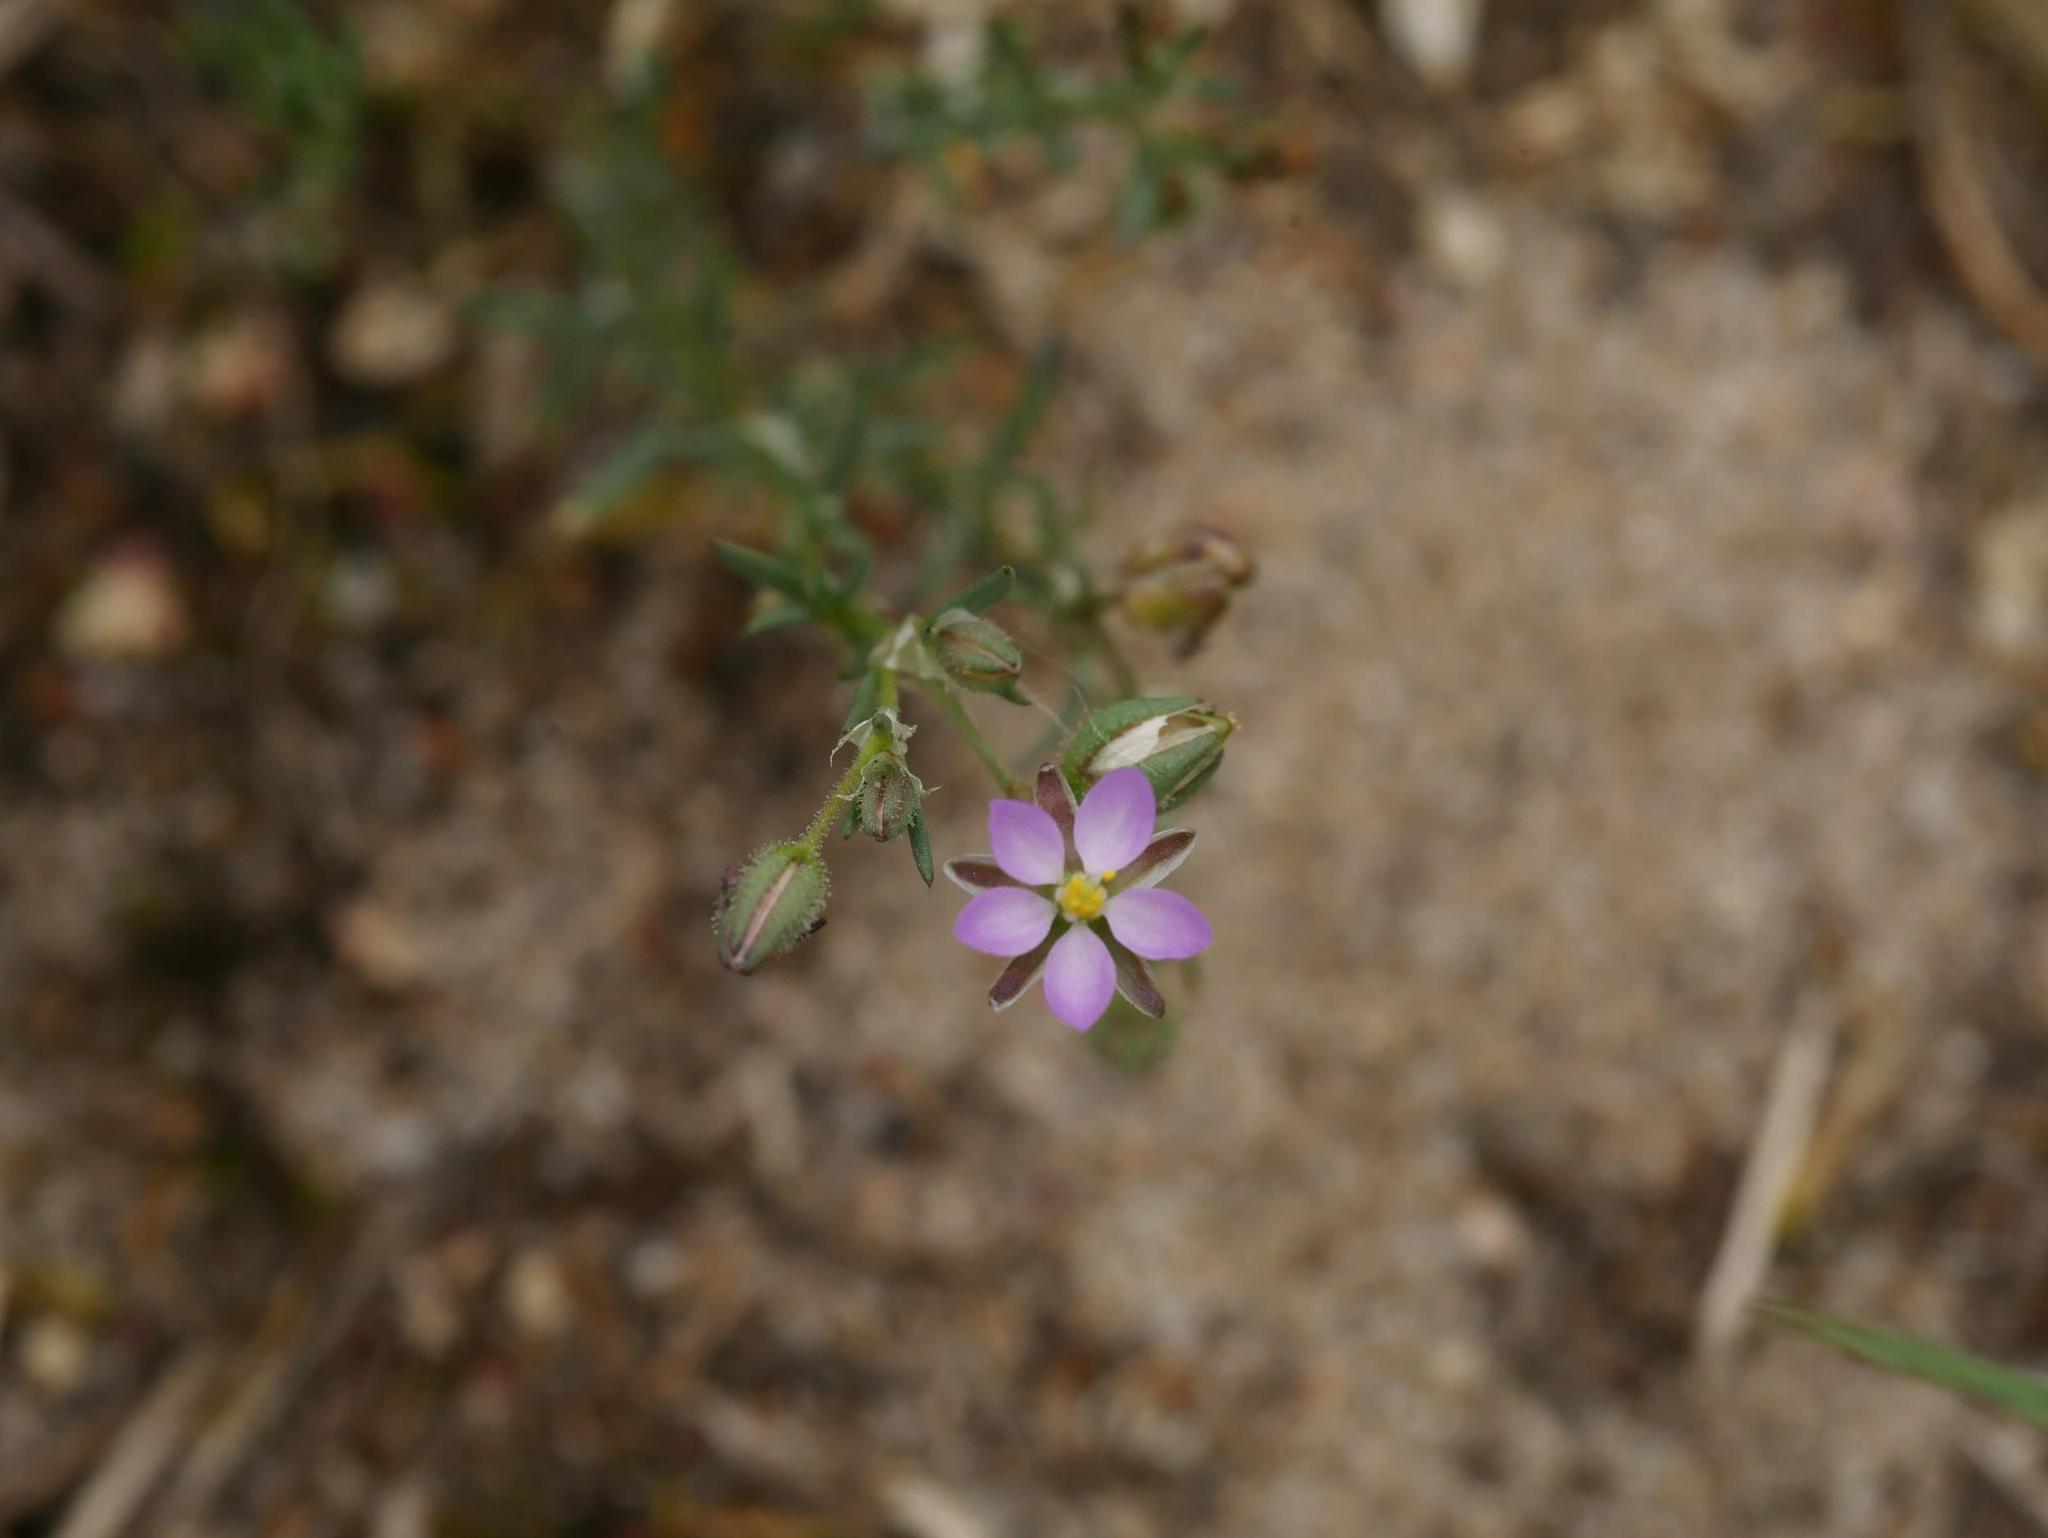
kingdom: Plantae
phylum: Tracheophyta
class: Magnoliopsida
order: Caryophyllales
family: Caryophyllaceae
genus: Spergularia
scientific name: Spergularia rubra
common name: Red sand-spurrey
